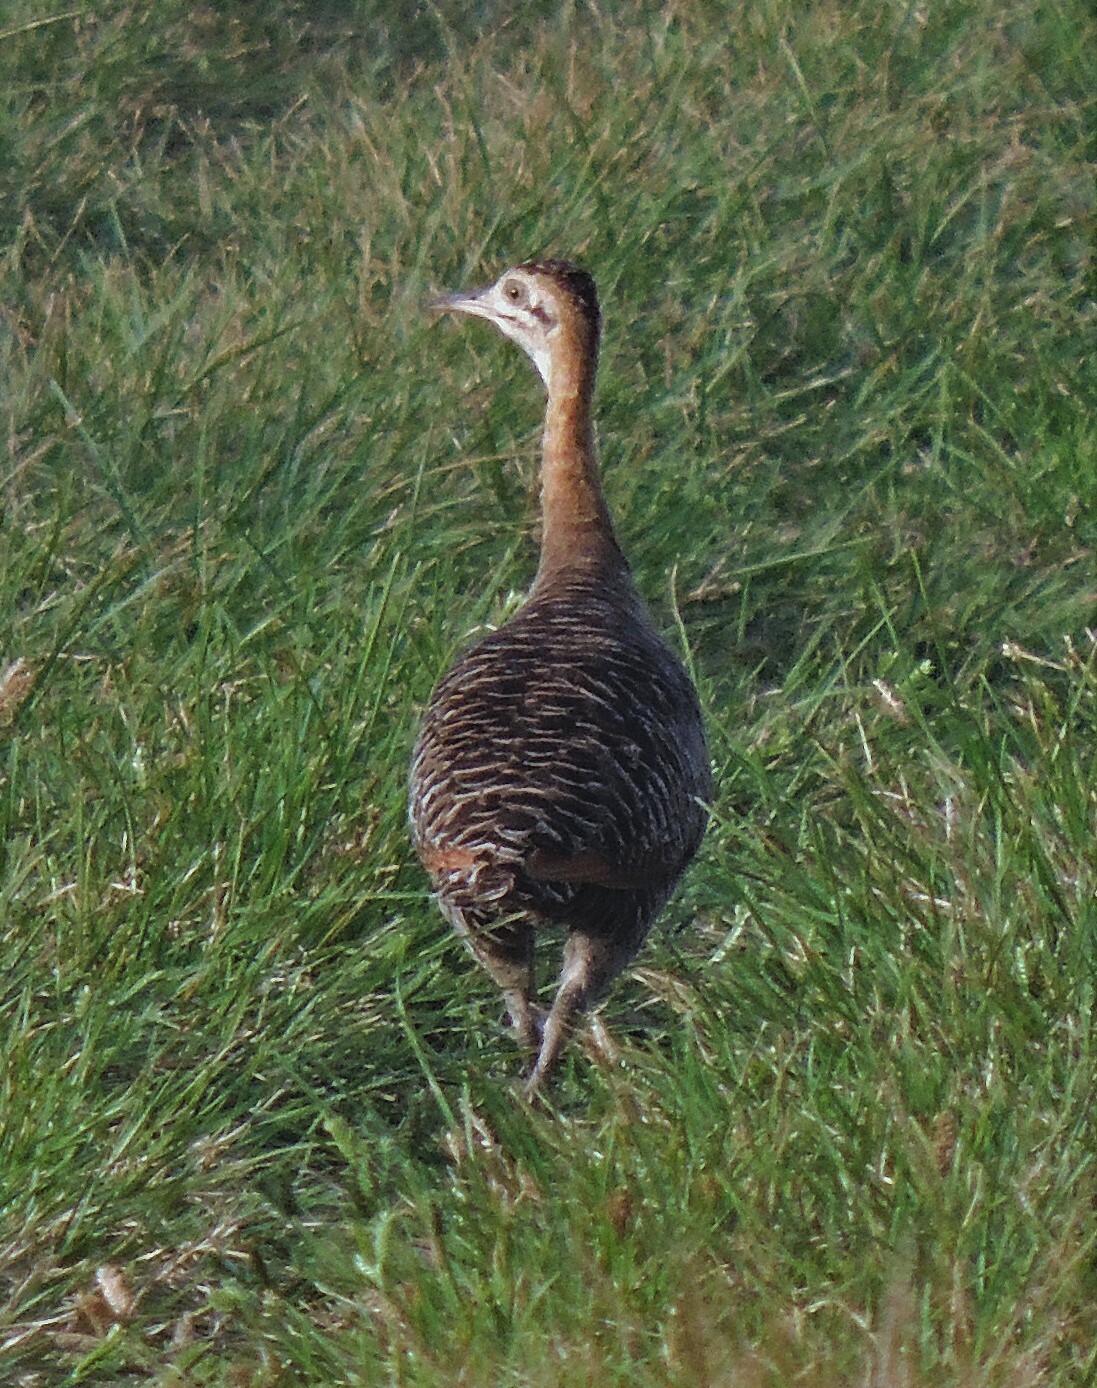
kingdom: Animalia
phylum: Chordata
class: Aves
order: Tinamiformes
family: Tinamidae
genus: Rhynchotus
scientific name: Rhynchotus rufescens
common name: Red-winged tinamou
